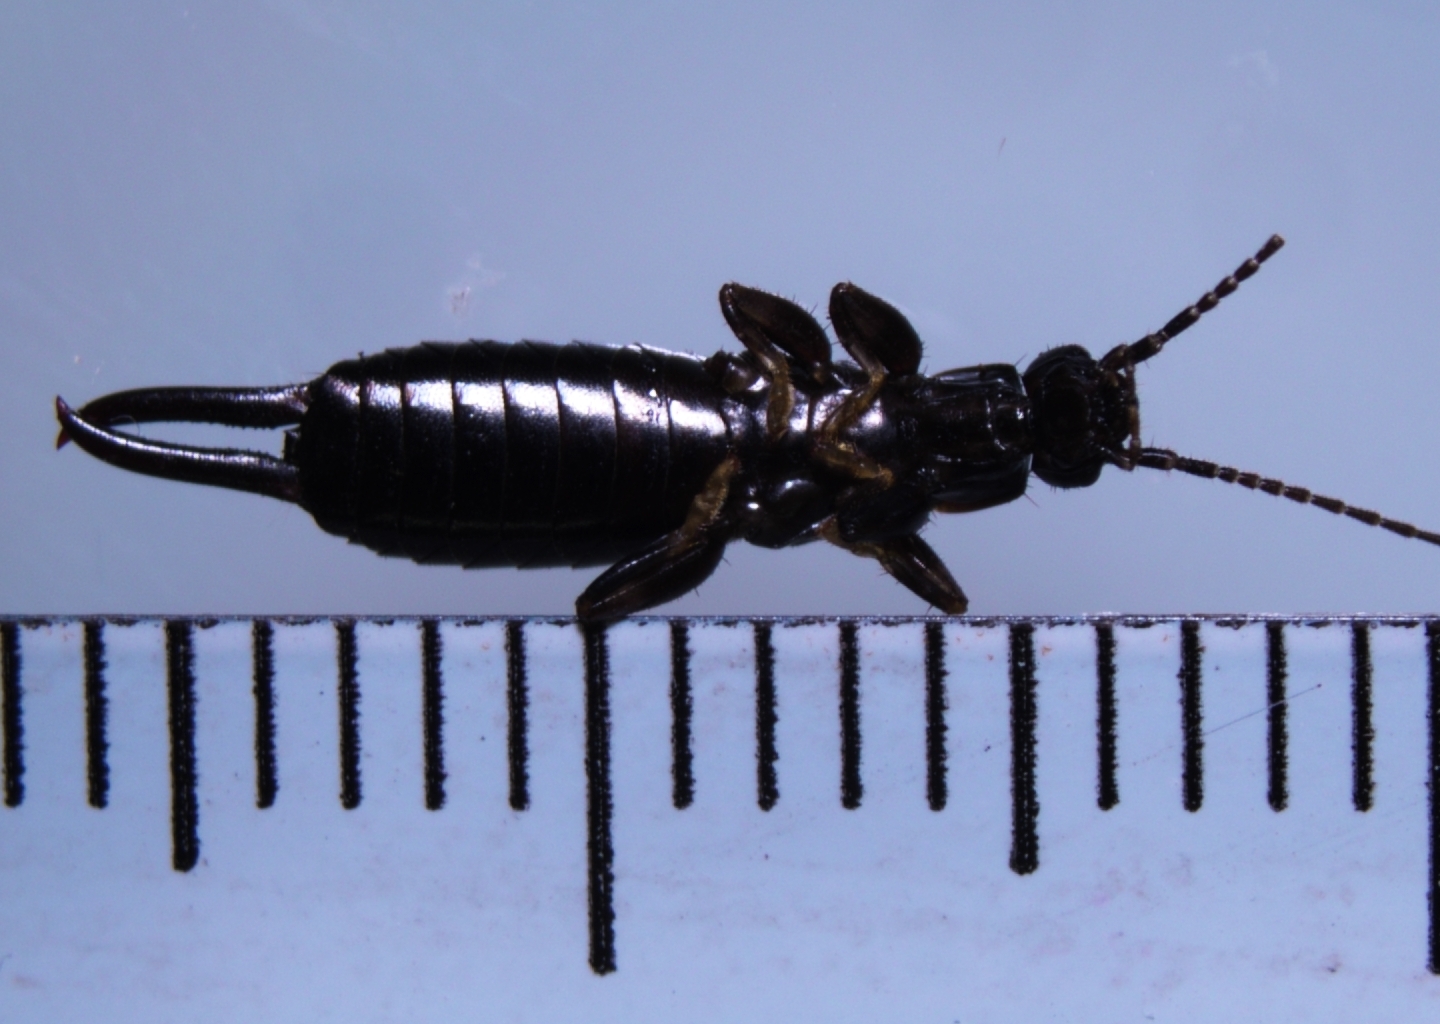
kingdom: Animalia
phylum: Arthropoda
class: Insecta
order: Dermaptera
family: Chelisochidae
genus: Chelisoches
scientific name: Chelisoches morio
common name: Black earwig
